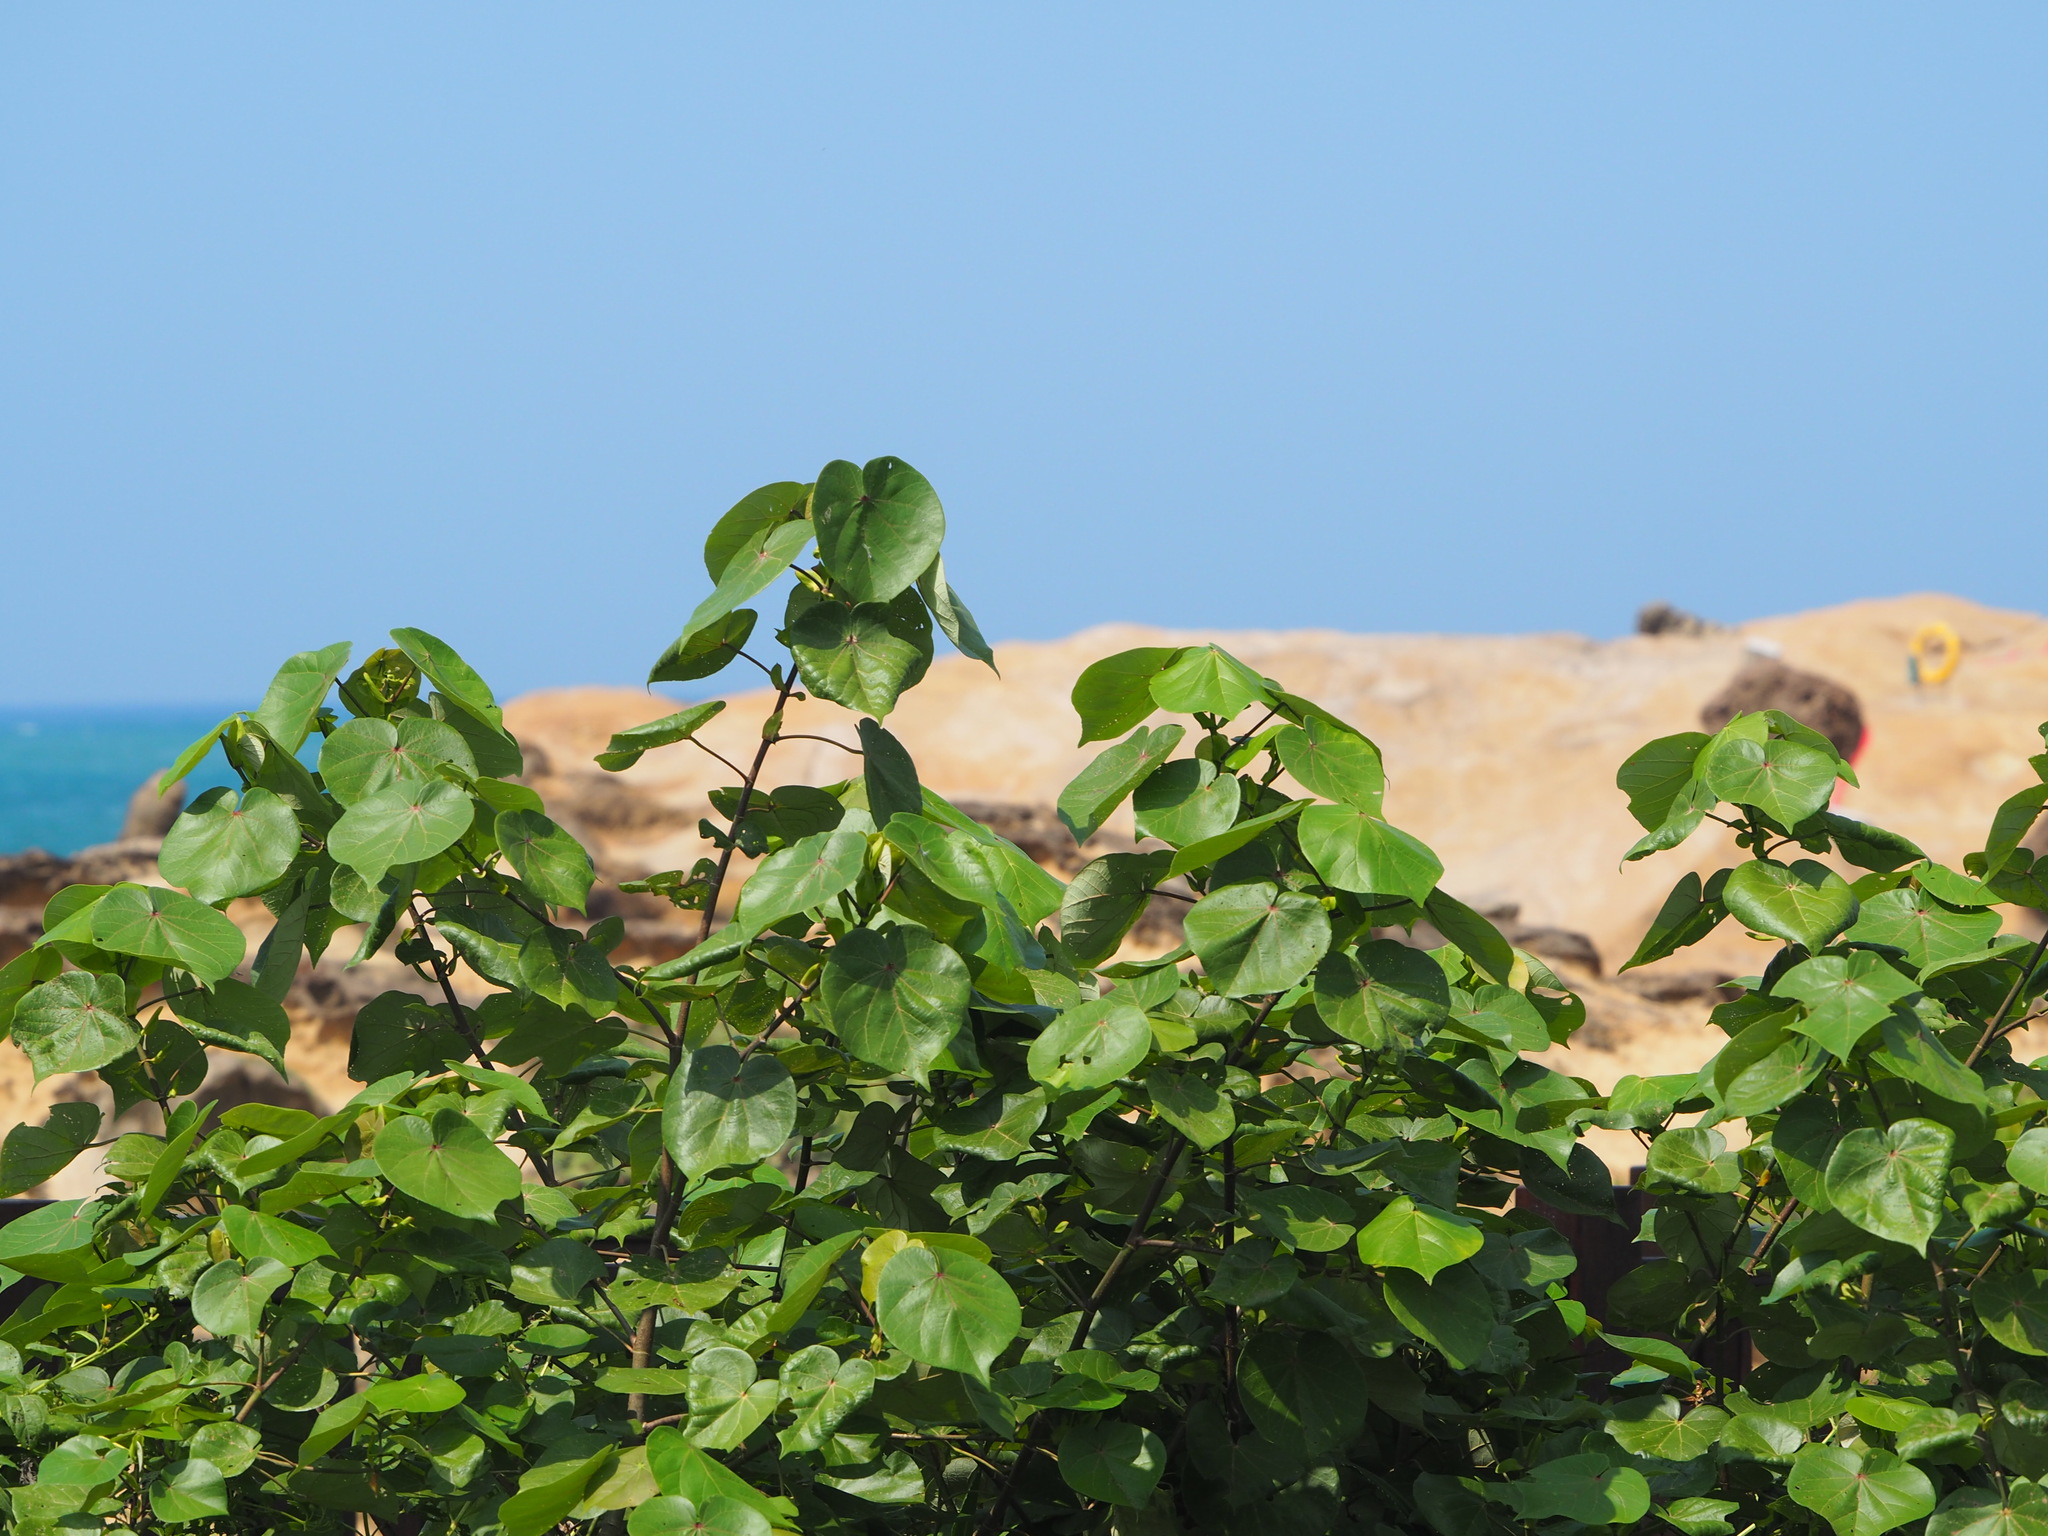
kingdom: Plantae
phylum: Tracheophyta
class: Magnoliopsida
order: Malvales
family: Malvaceae
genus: Talipariti
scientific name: Talipariti tiliaceum
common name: Sea hibiscus
